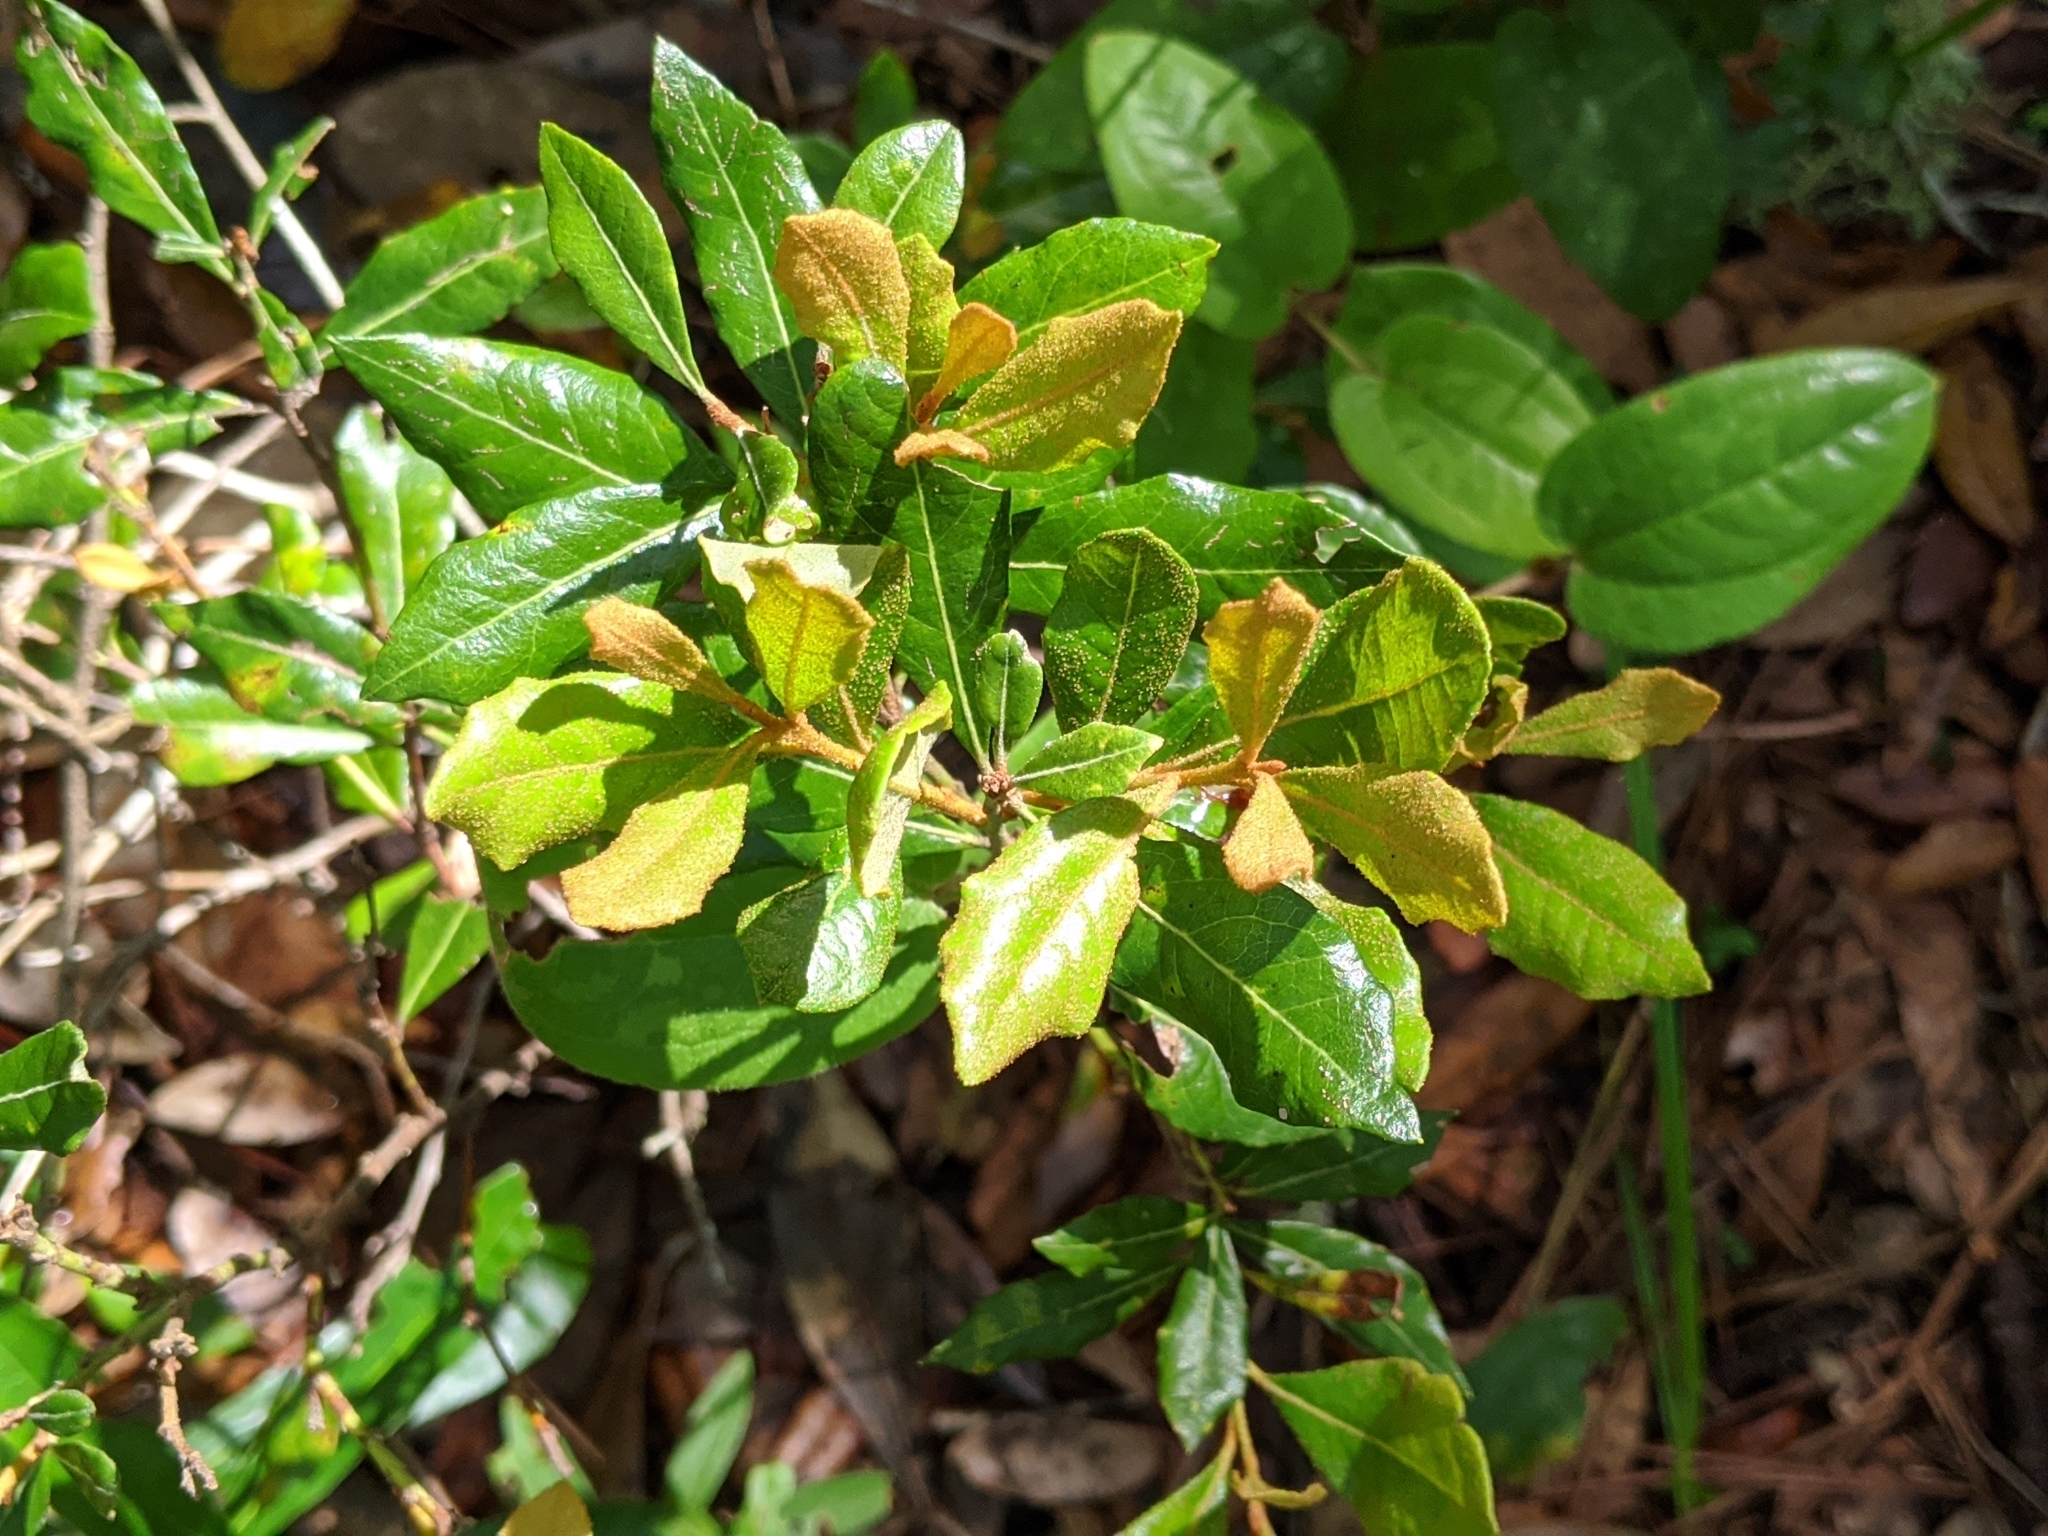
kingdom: Plantae
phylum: Tracheophyta
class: Magnoliopsida
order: Ericales
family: Ericaceae
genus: Lyonia
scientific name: Lyonia ferruginea
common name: Rusty lyonia
